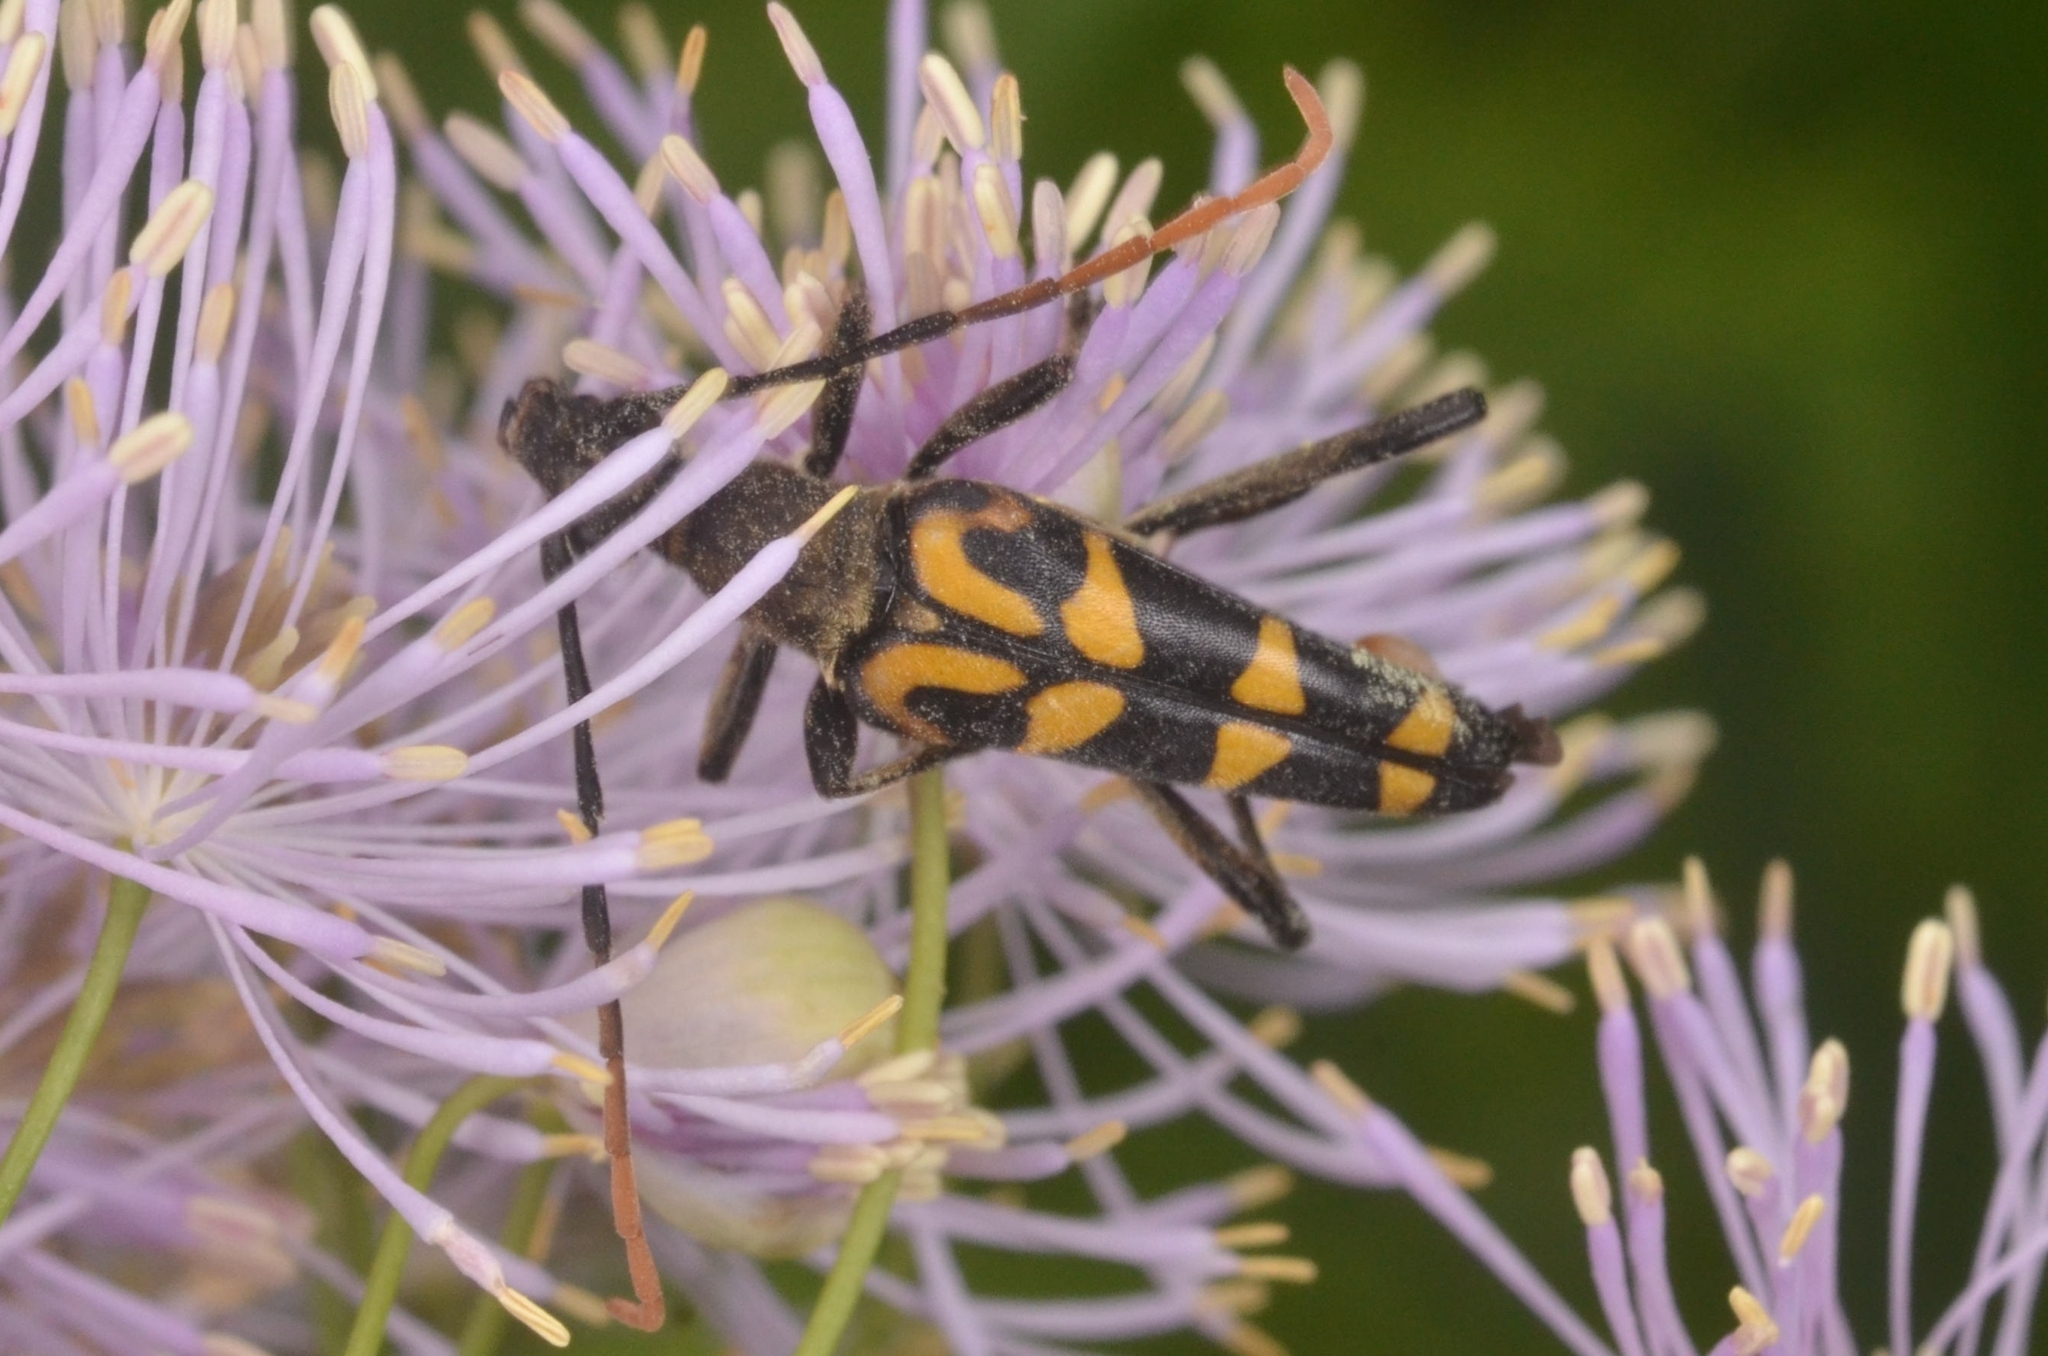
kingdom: Animalia
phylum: Arthropoda
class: Insecta
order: Coleoptera
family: Cerambycidae
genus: Leptura
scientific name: Leptura annularis
